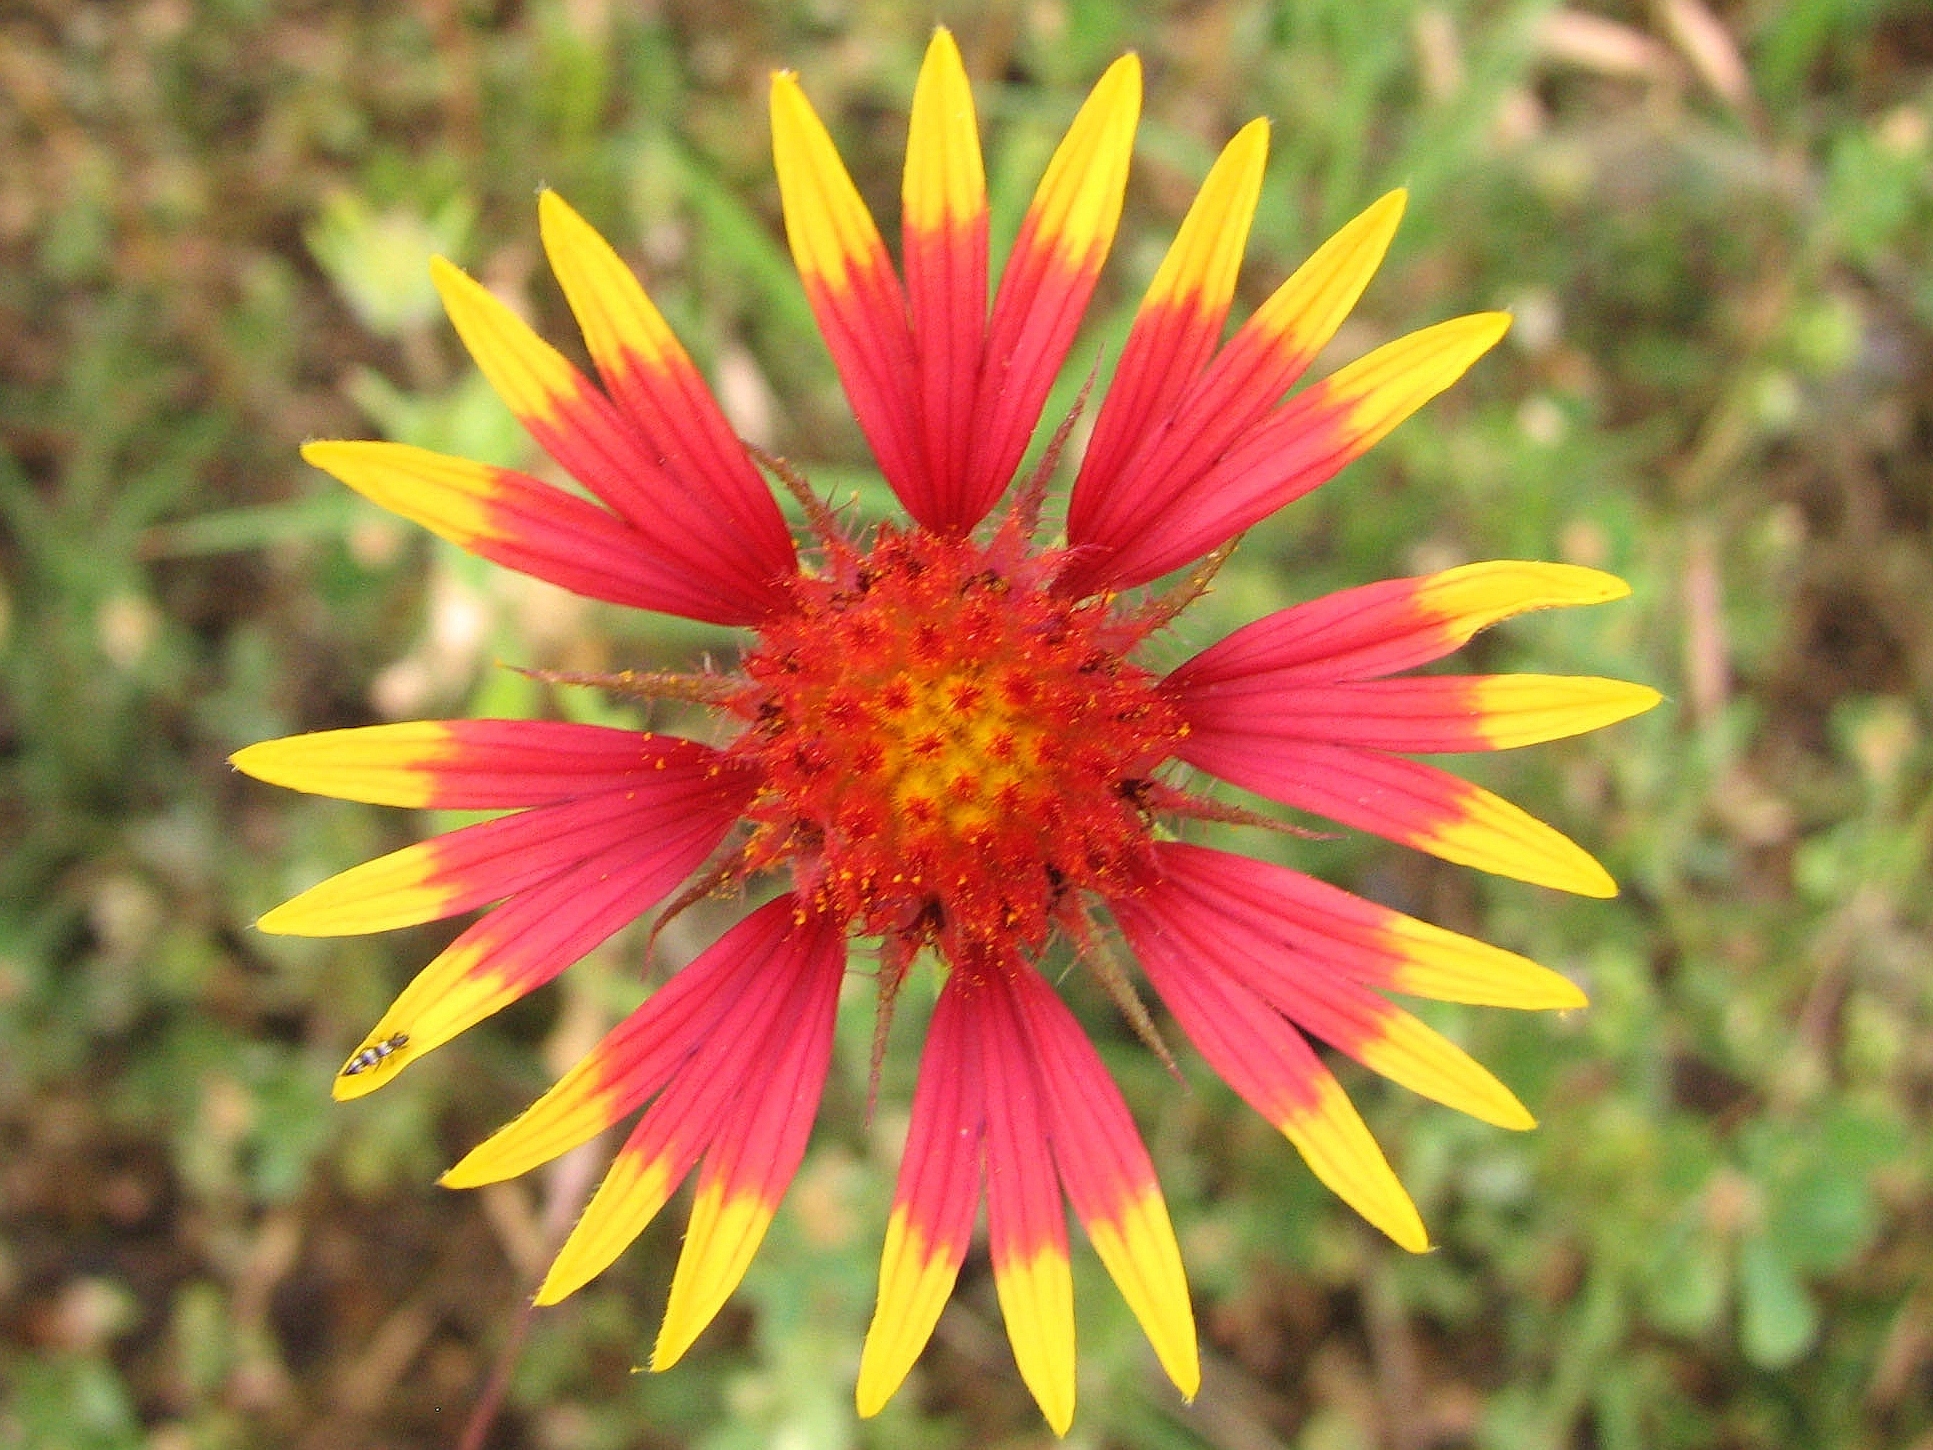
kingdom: Plantae
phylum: Tracheophyta
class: Magnoliopsida
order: Asterales
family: Asteraceae
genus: Gaillardia
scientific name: Gaillardia pulchella
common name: Firewheel
